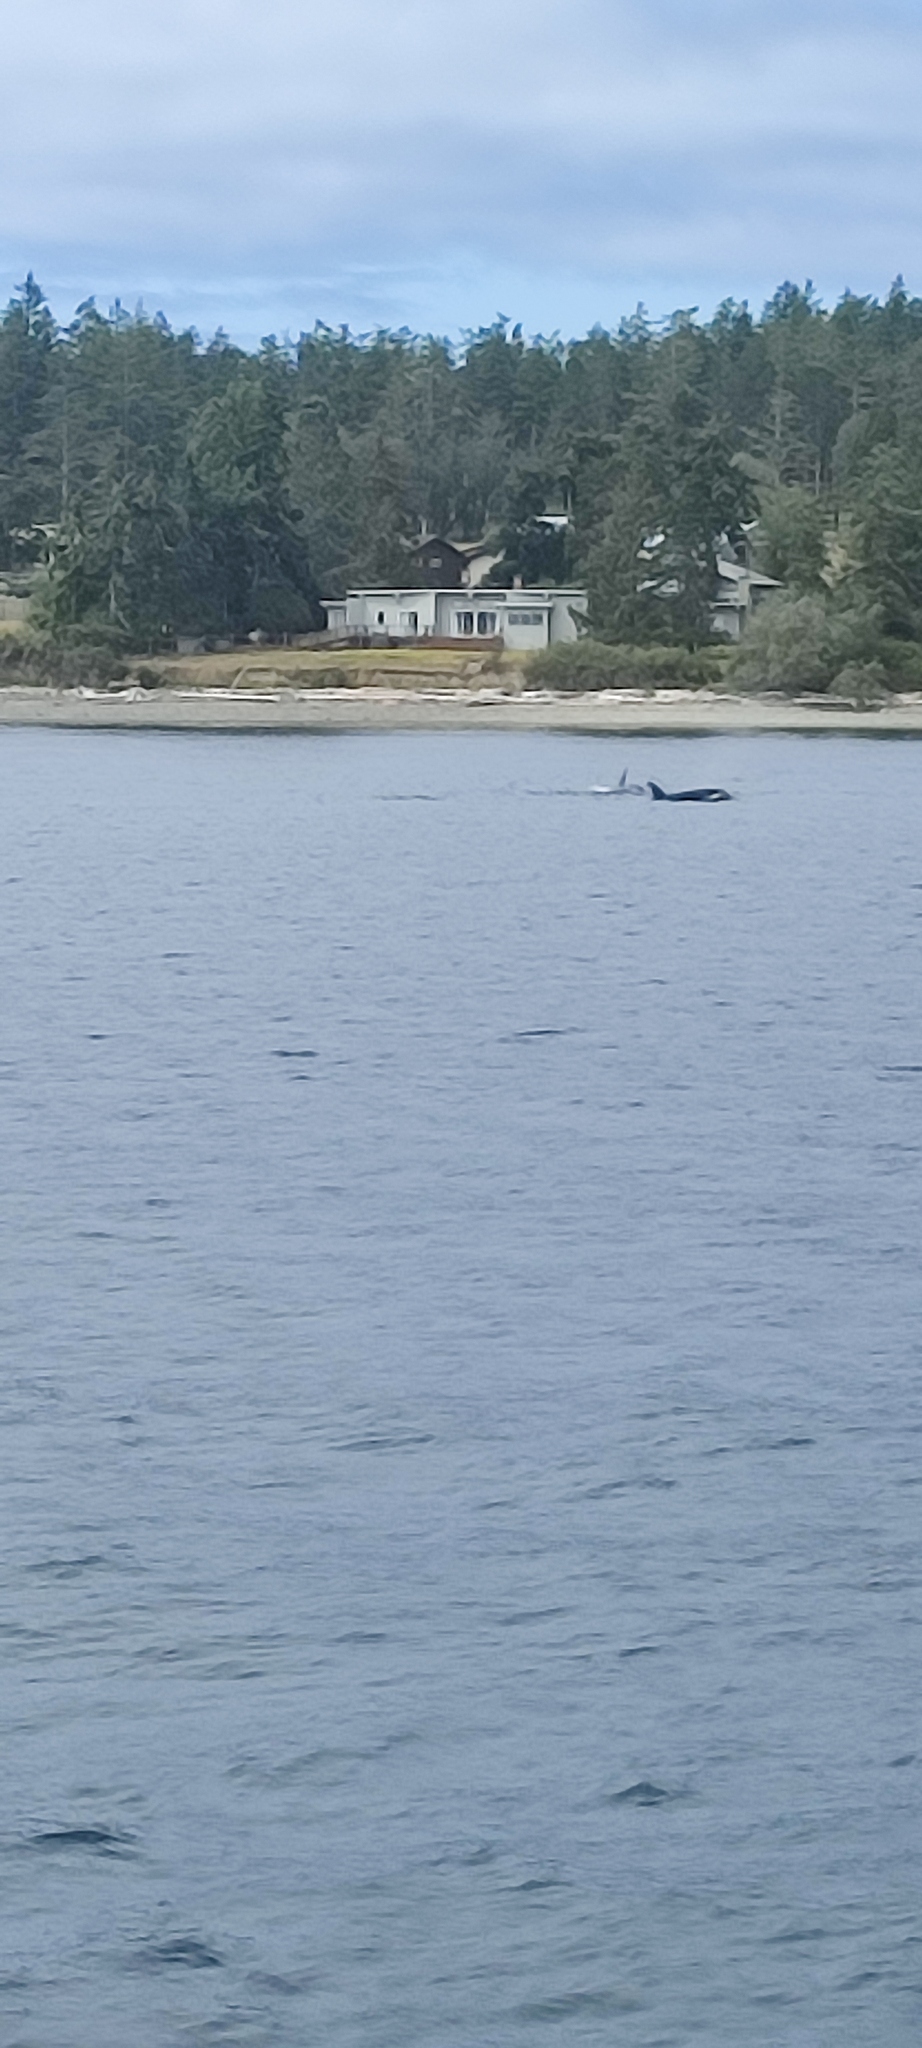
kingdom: Animalia
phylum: Chordata
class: Mammalia
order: Cetacea
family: Delphinidae
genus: Orcinus
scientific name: Orcinus orca
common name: Killer whale
